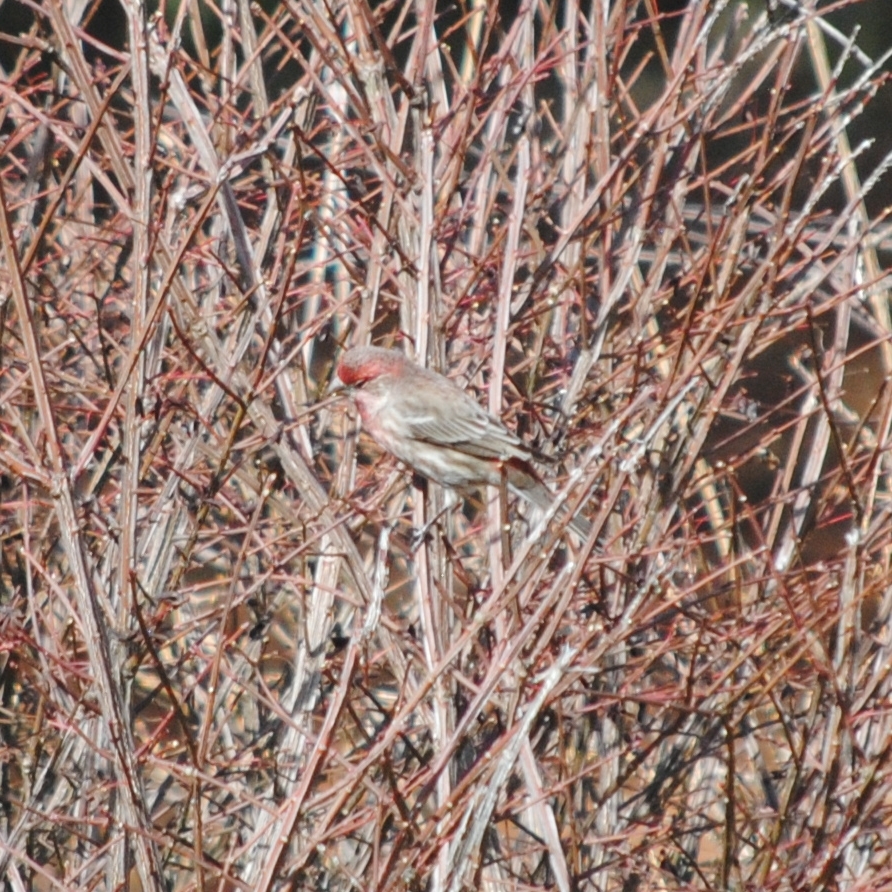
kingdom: Animalia
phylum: Chordata
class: Aves
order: Passeriformes
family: Fringillidae
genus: Haemorhous
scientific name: Haemorhous mexicanus
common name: House finch
